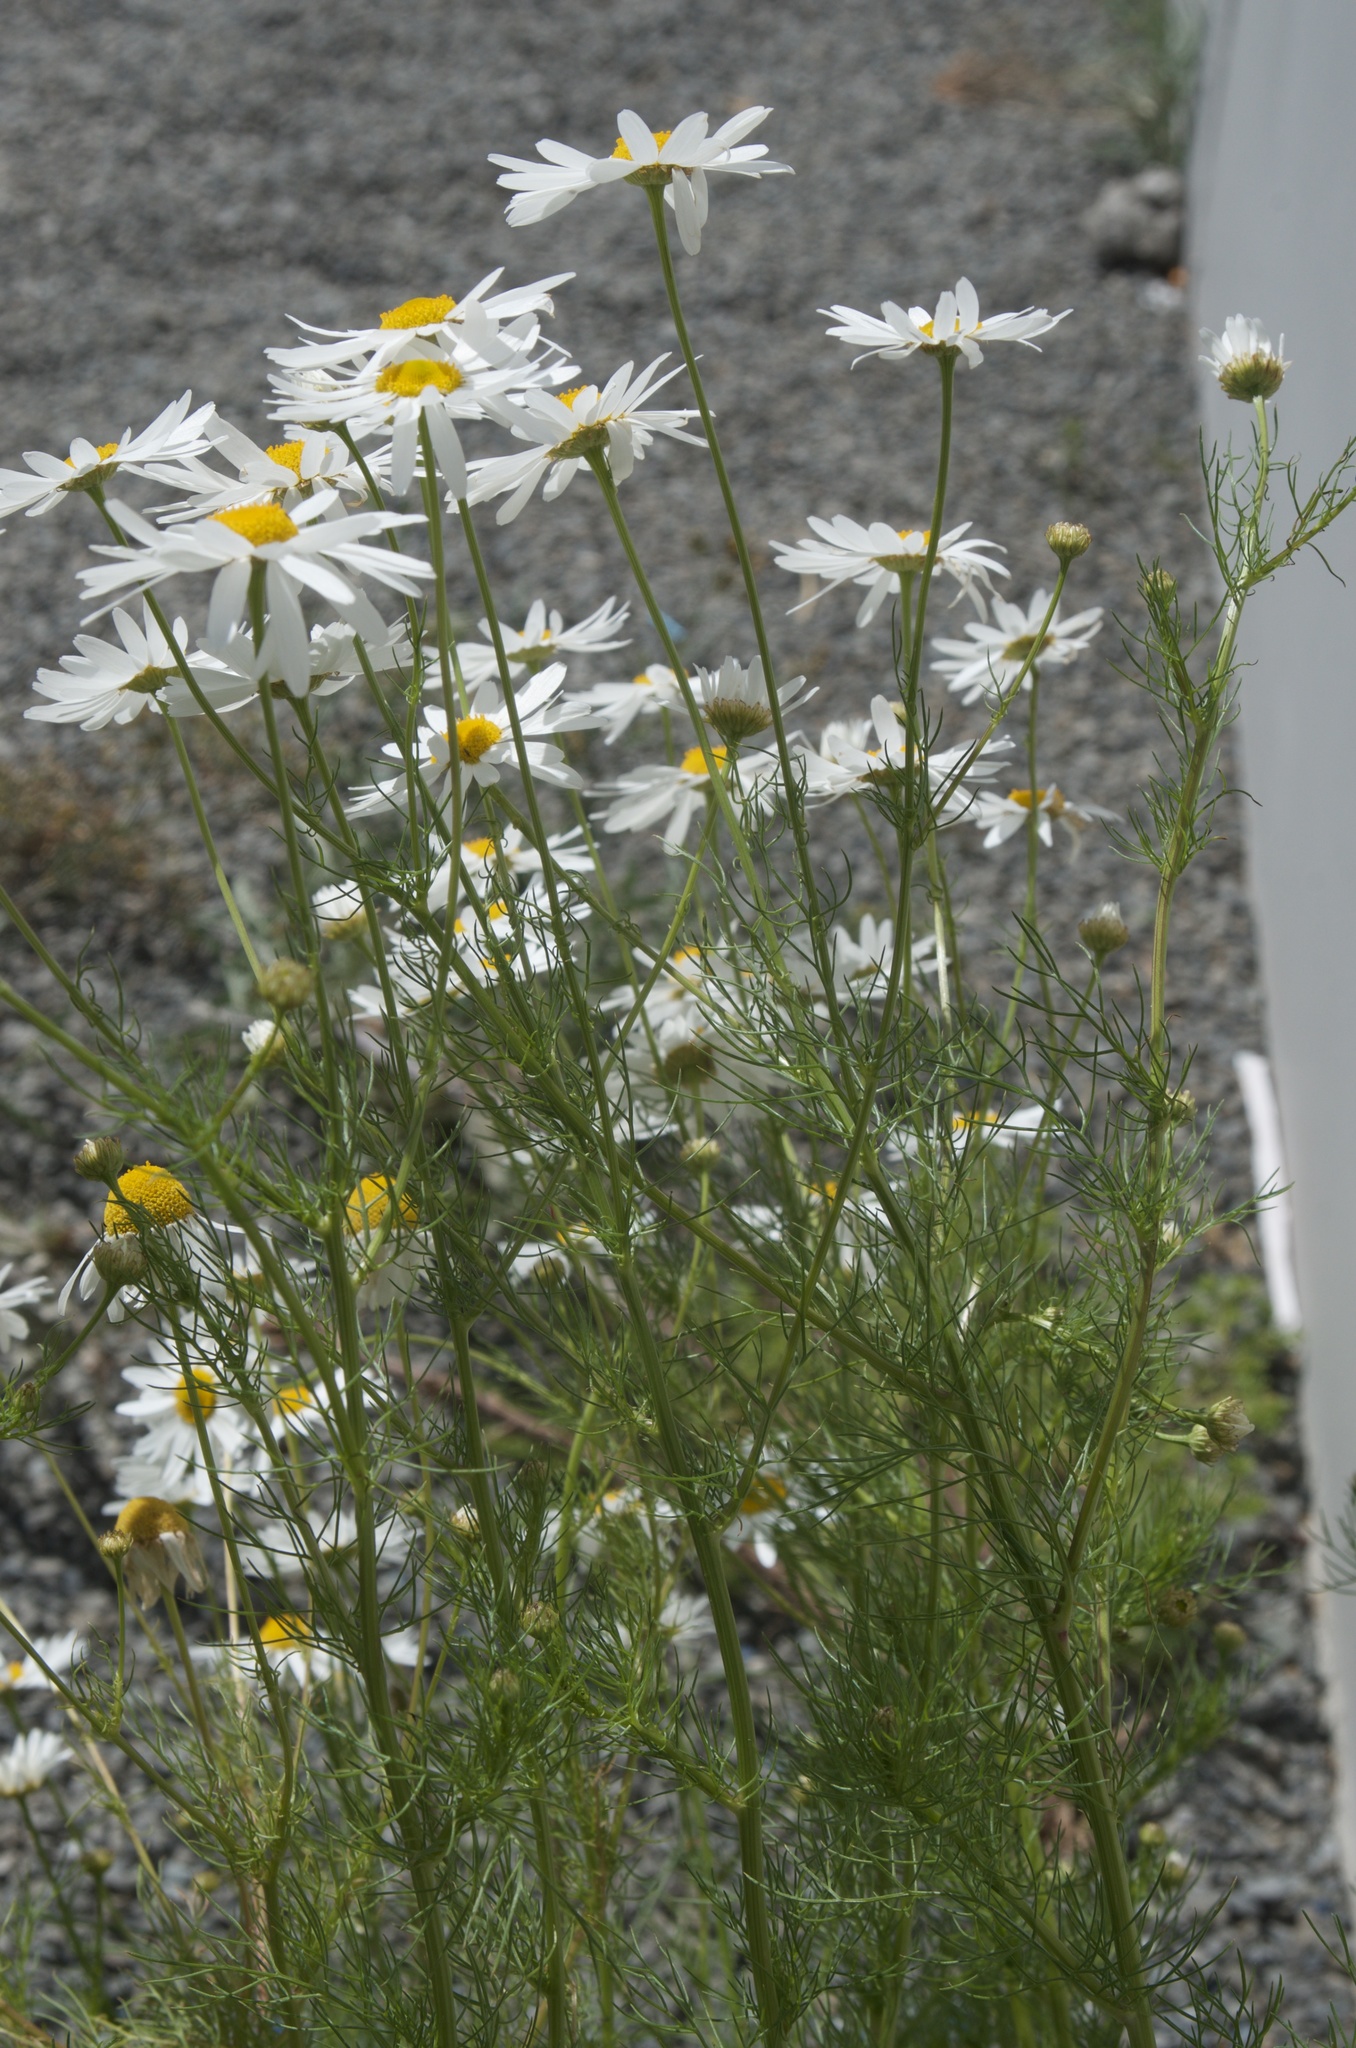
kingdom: Plantae
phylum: Tracheophyta
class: Magnoliopsida
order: Asterales
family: Asteraceae
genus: Tripleurospermum
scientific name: Tripleurospermum inodorum
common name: Scentless mayweed
